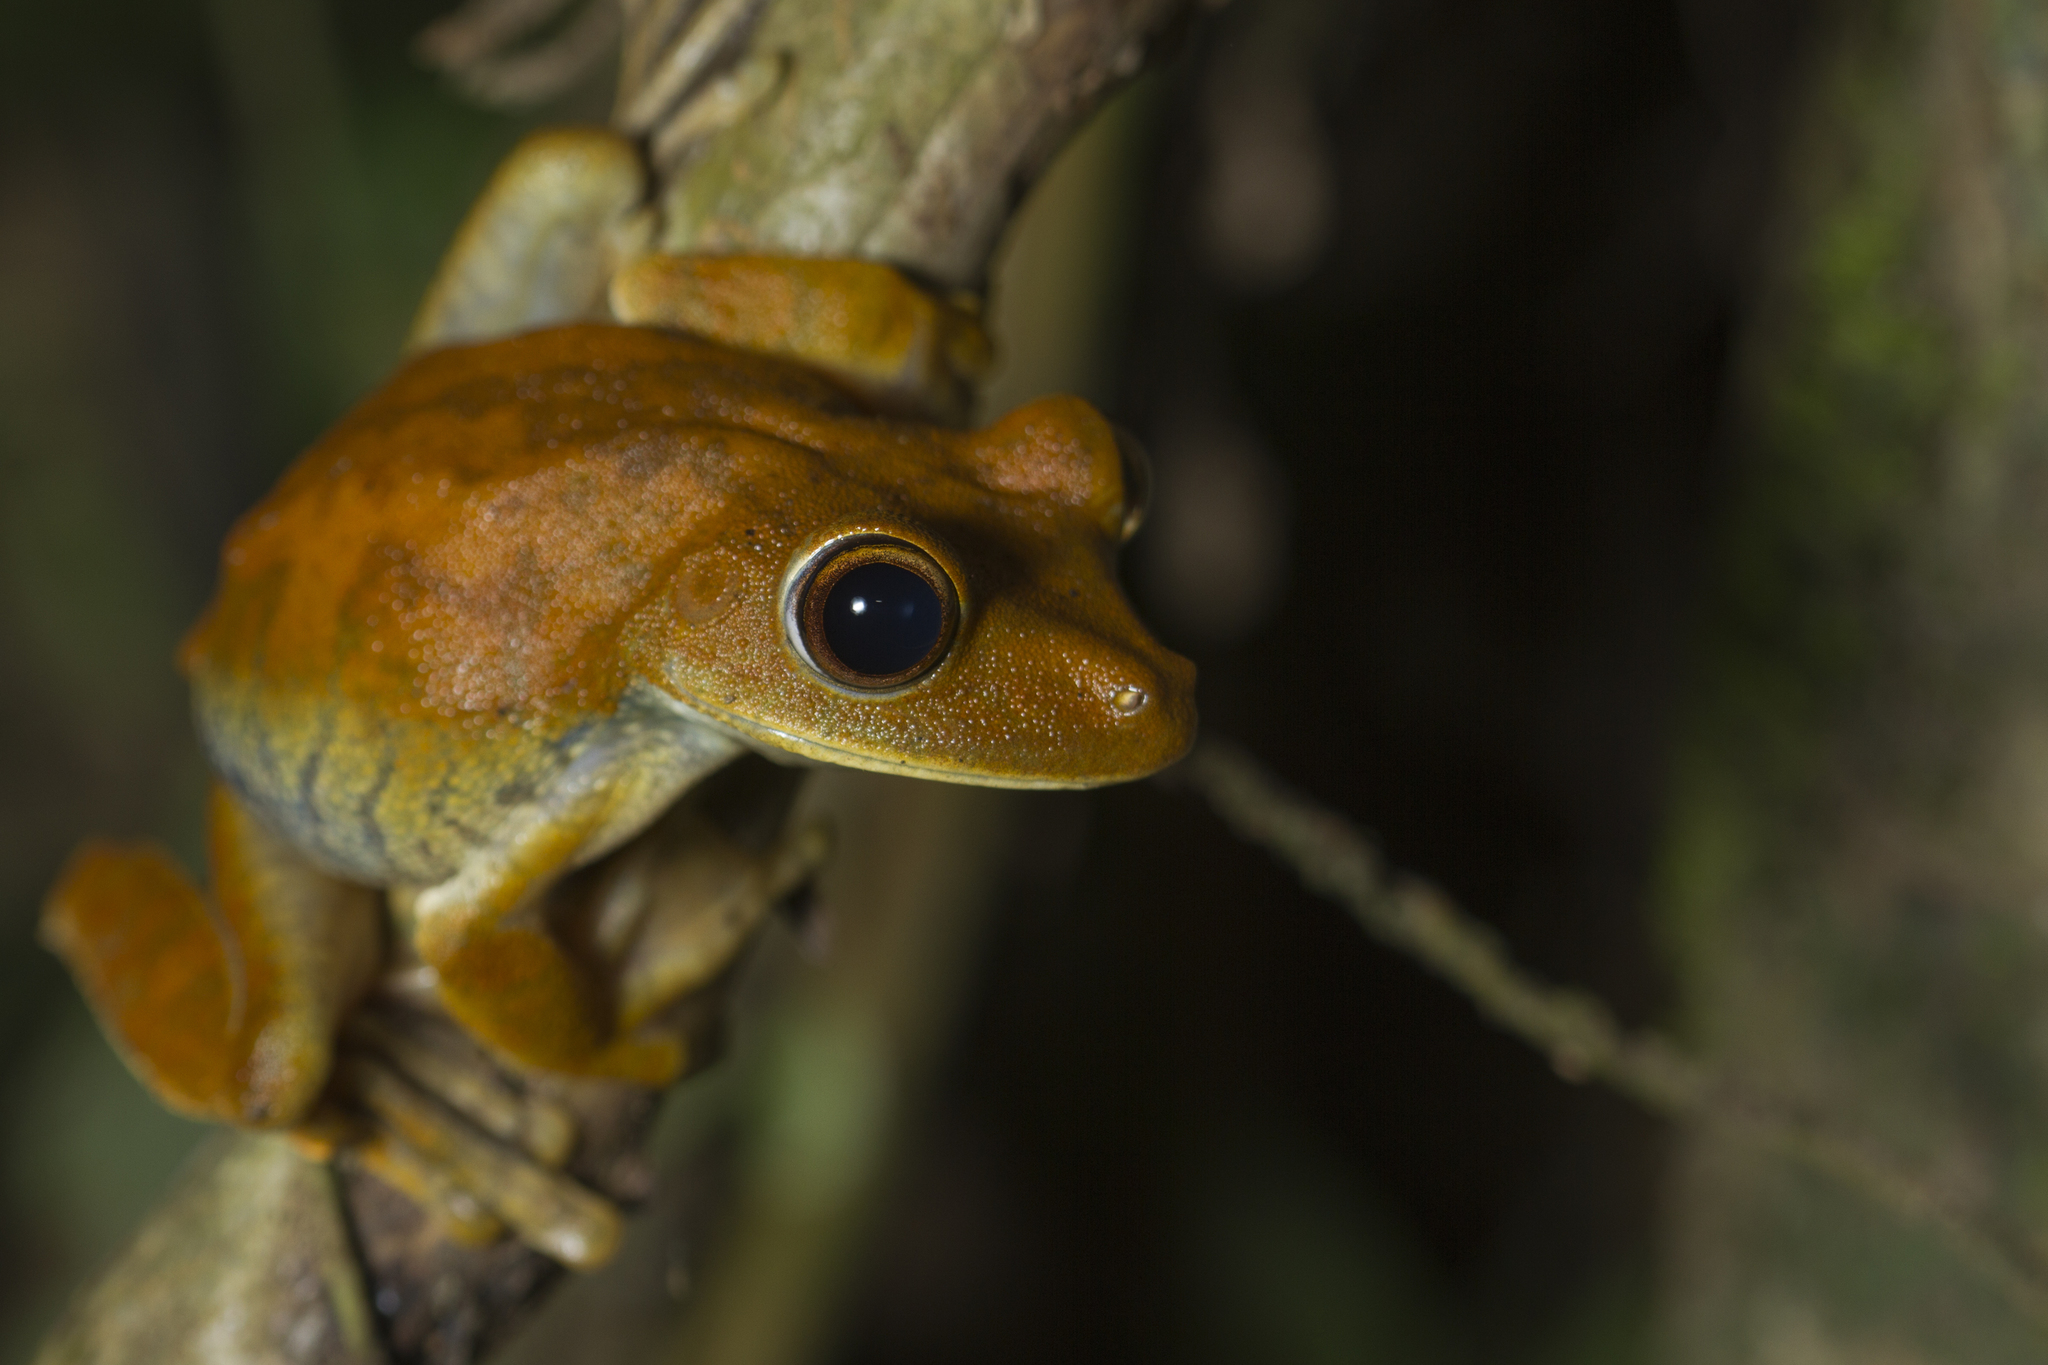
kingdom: Animalia
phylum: Chordata
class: Amphibia
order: Anura
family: Hylidae
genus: Boana
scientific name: Boana boans
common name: Giant gladiator treefrog
